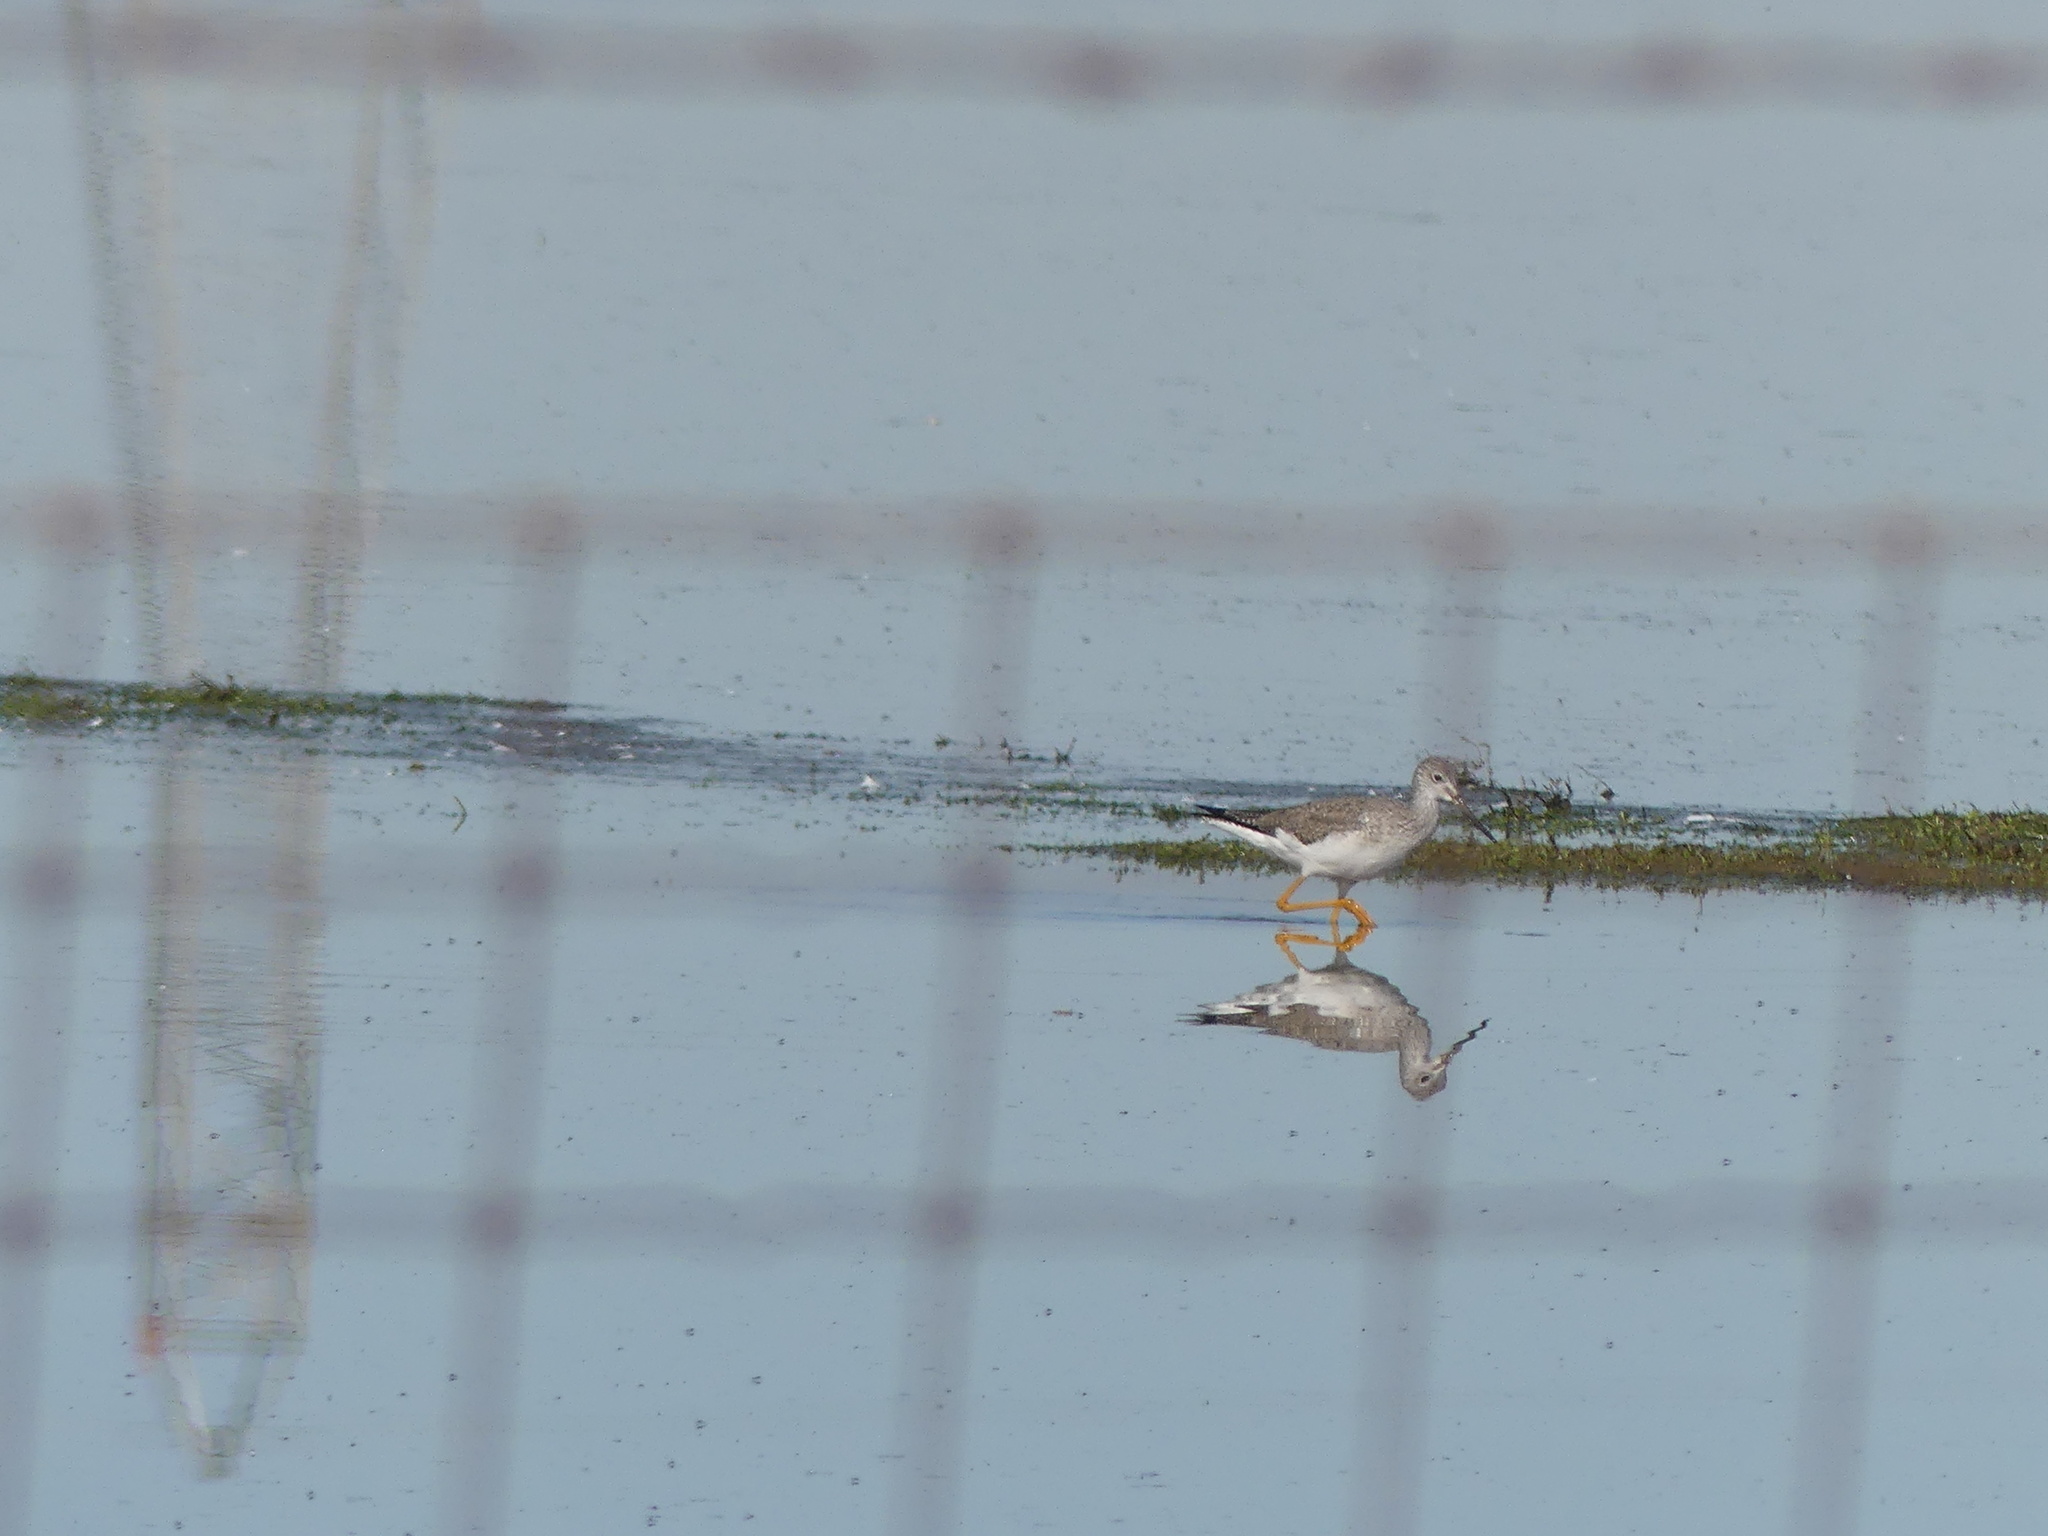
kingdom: Animalia
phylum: Chordata
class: Aves
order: Charadriiformes
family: Scolopacidae
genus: Tringa
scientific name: Tringa melanoleuca
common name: Greater yellowlegs
